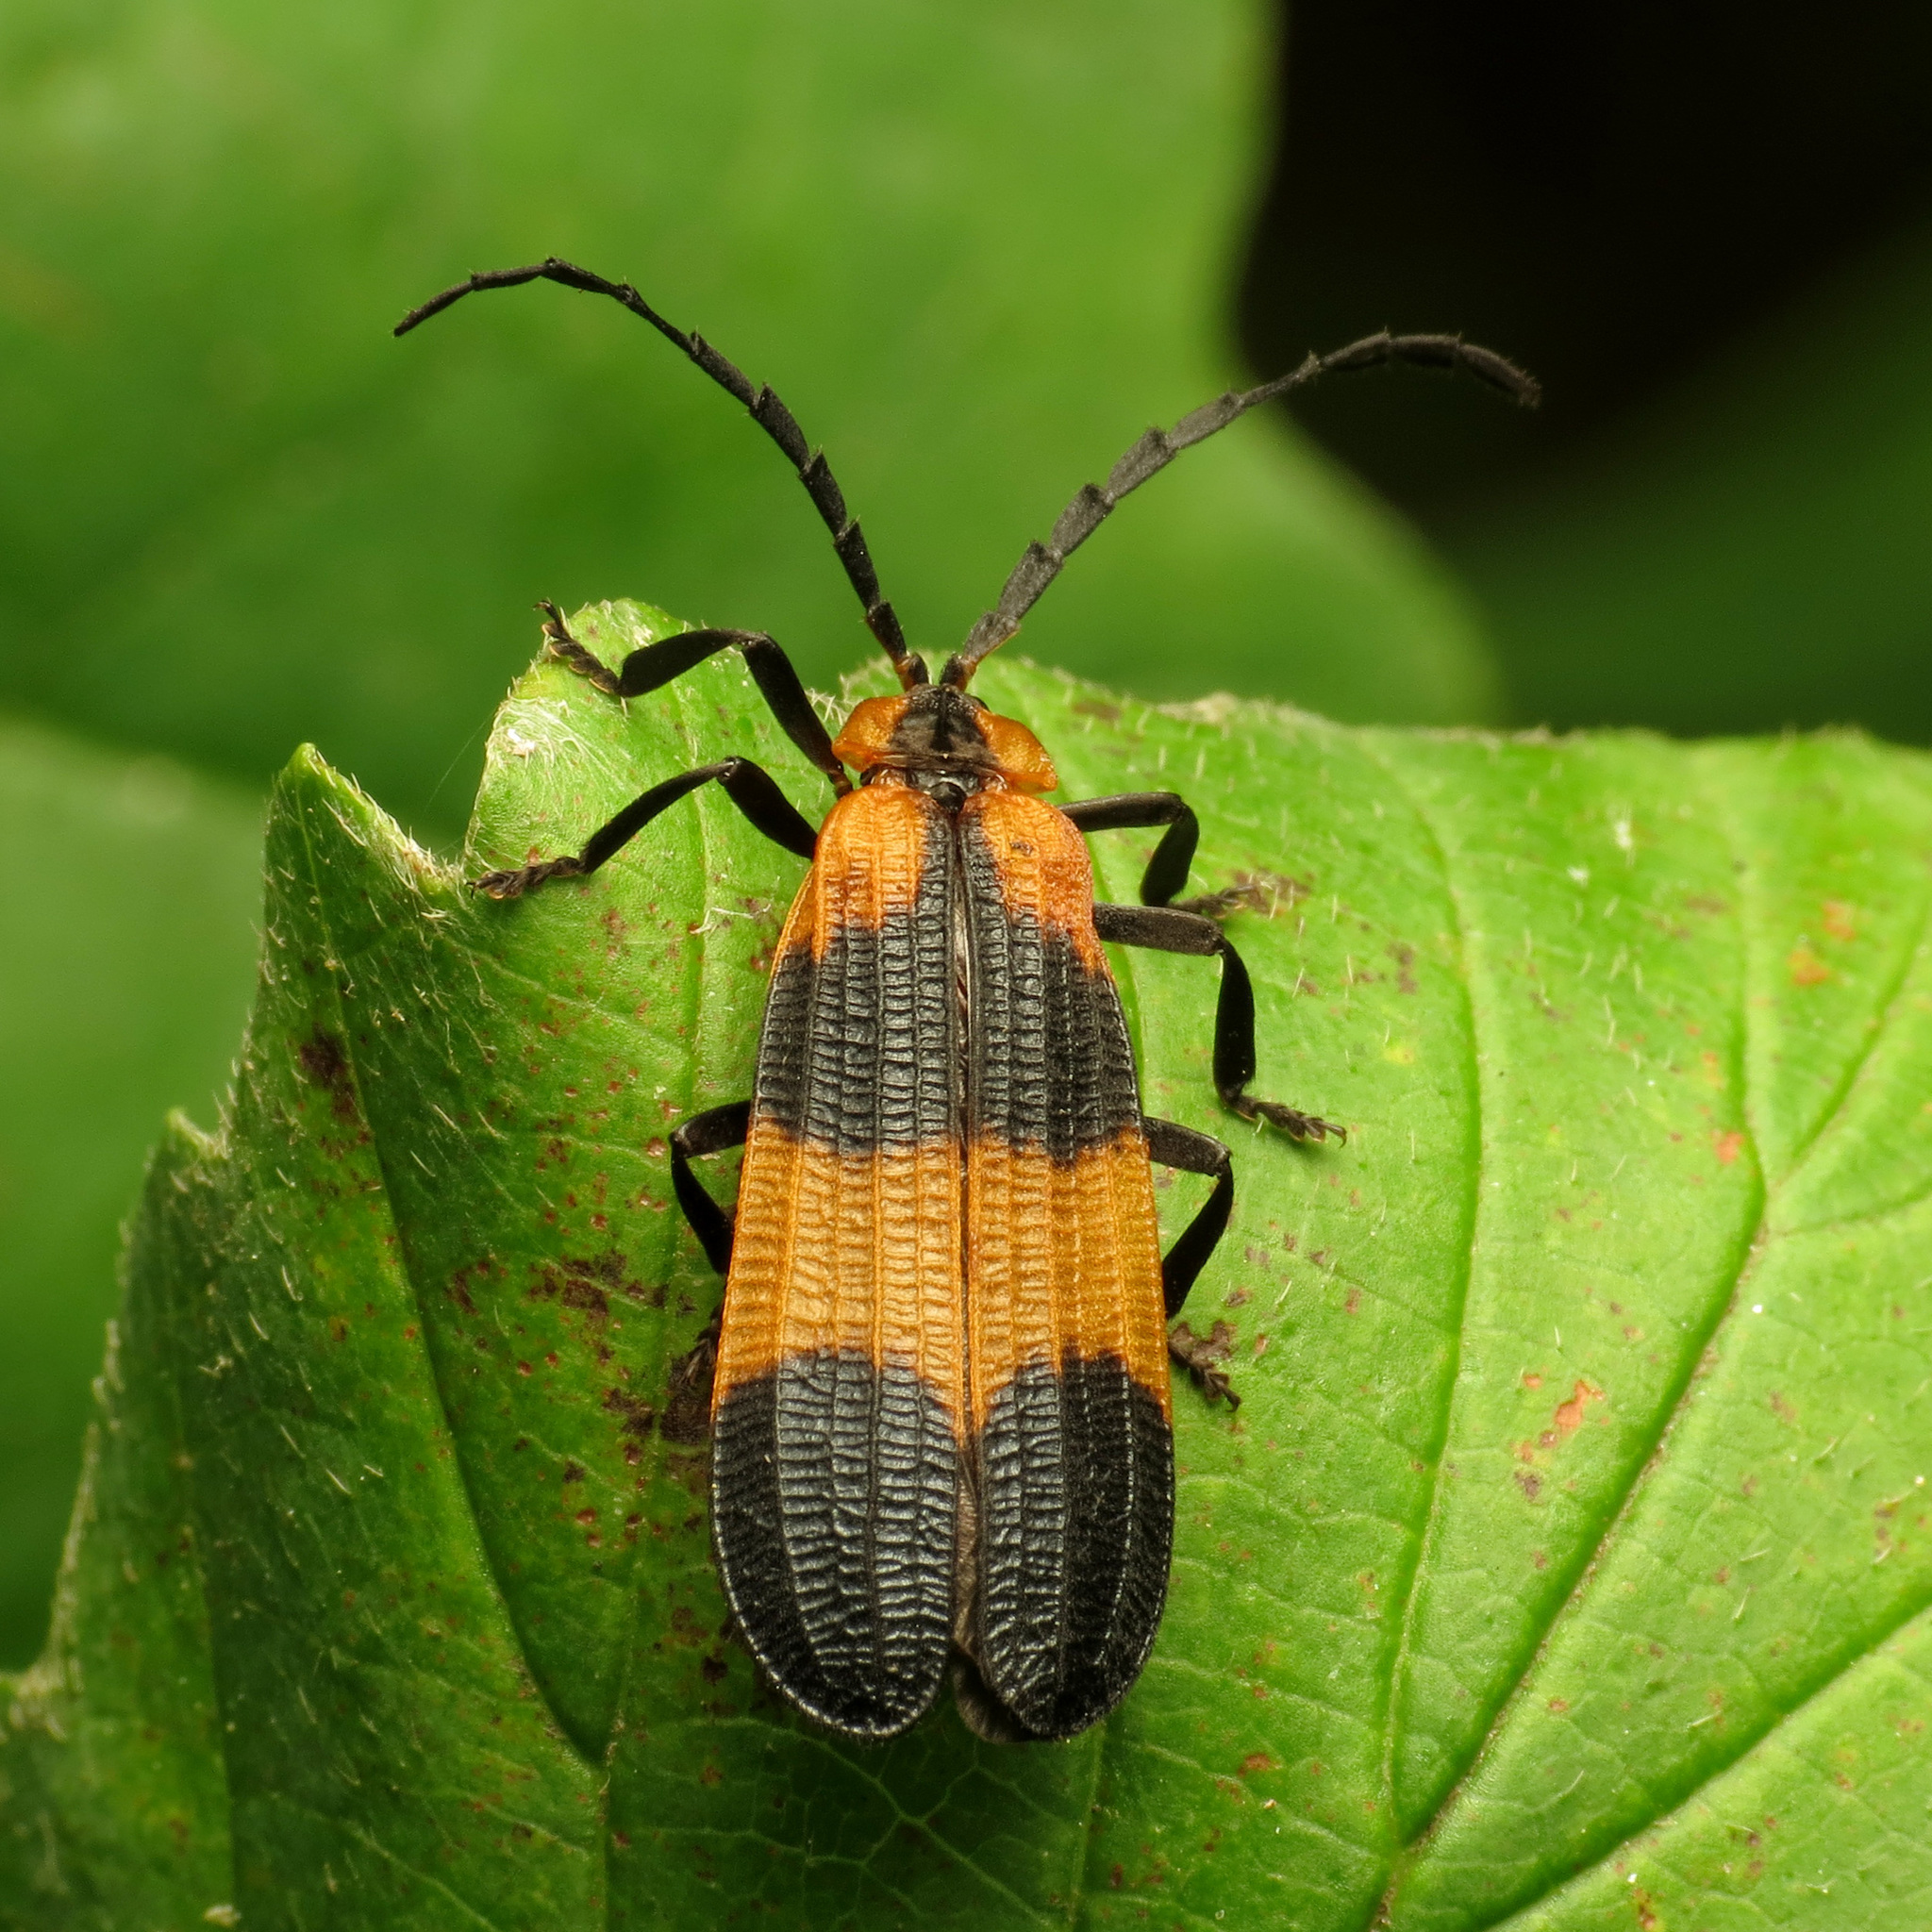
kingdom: Animalia
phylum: Arthropoda
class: Insecta
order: Coleoptera
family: Lycidae
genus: Calopteron
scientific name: Calopteron reticulatum
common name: Banded net-winged beetle
